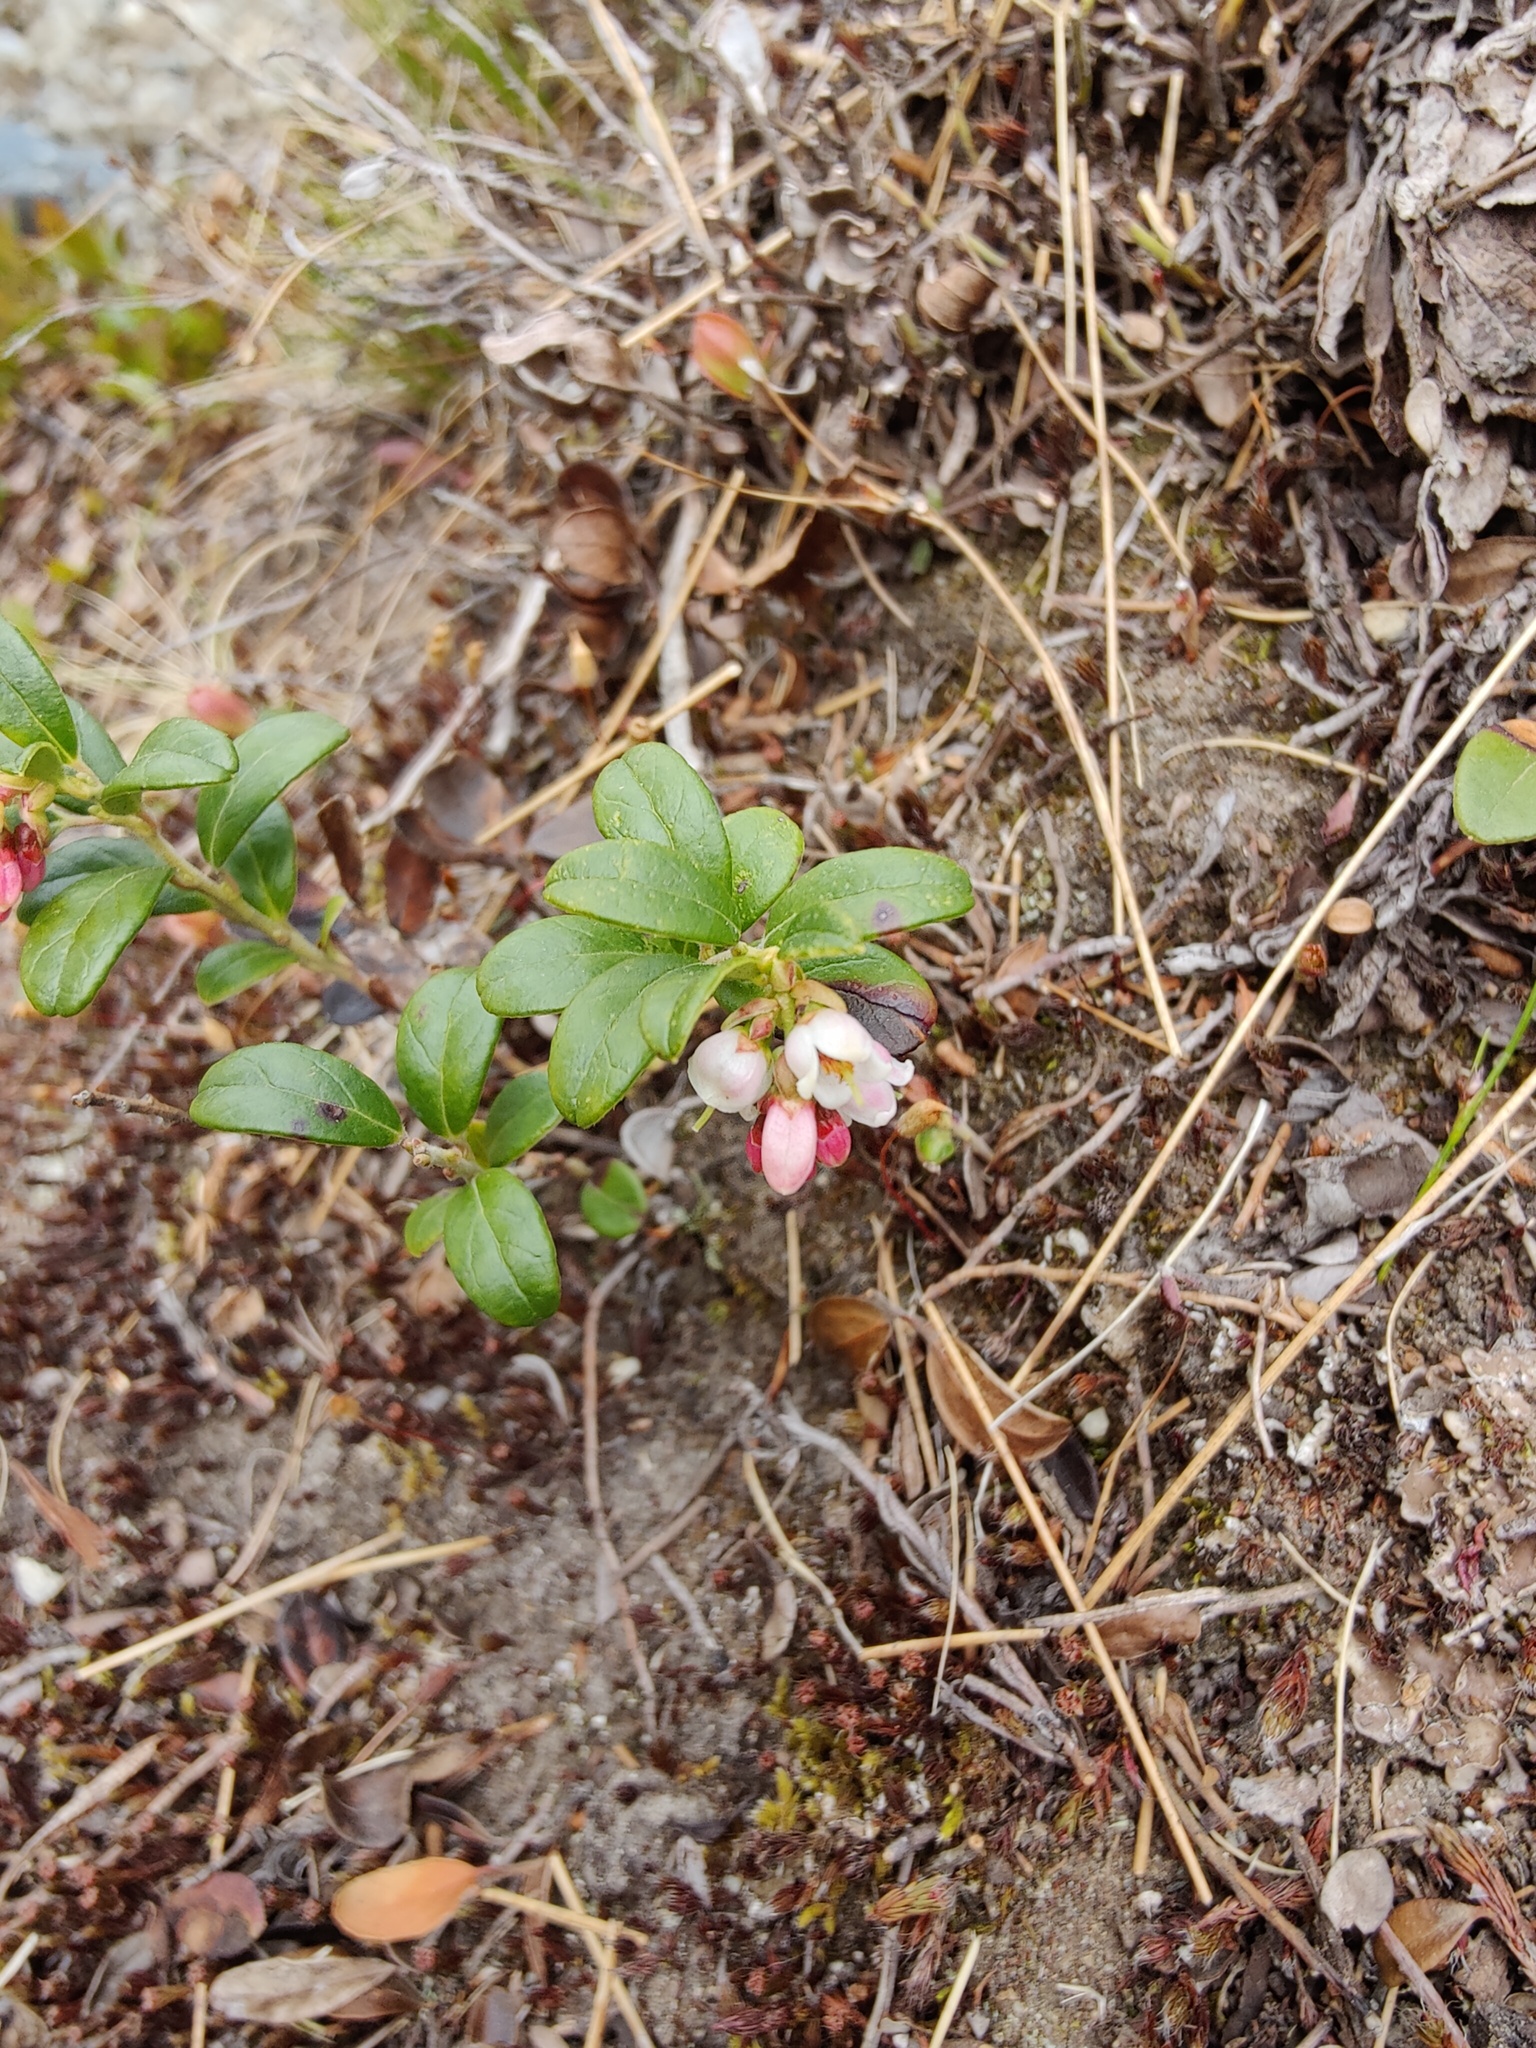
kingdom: Plantae
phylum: Tracheophyta
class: Magnoliopsida
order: Ericales
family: Ericaceae
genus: Vaccinium
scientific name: Vaccinium vitis-idaea
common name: Cowberry
